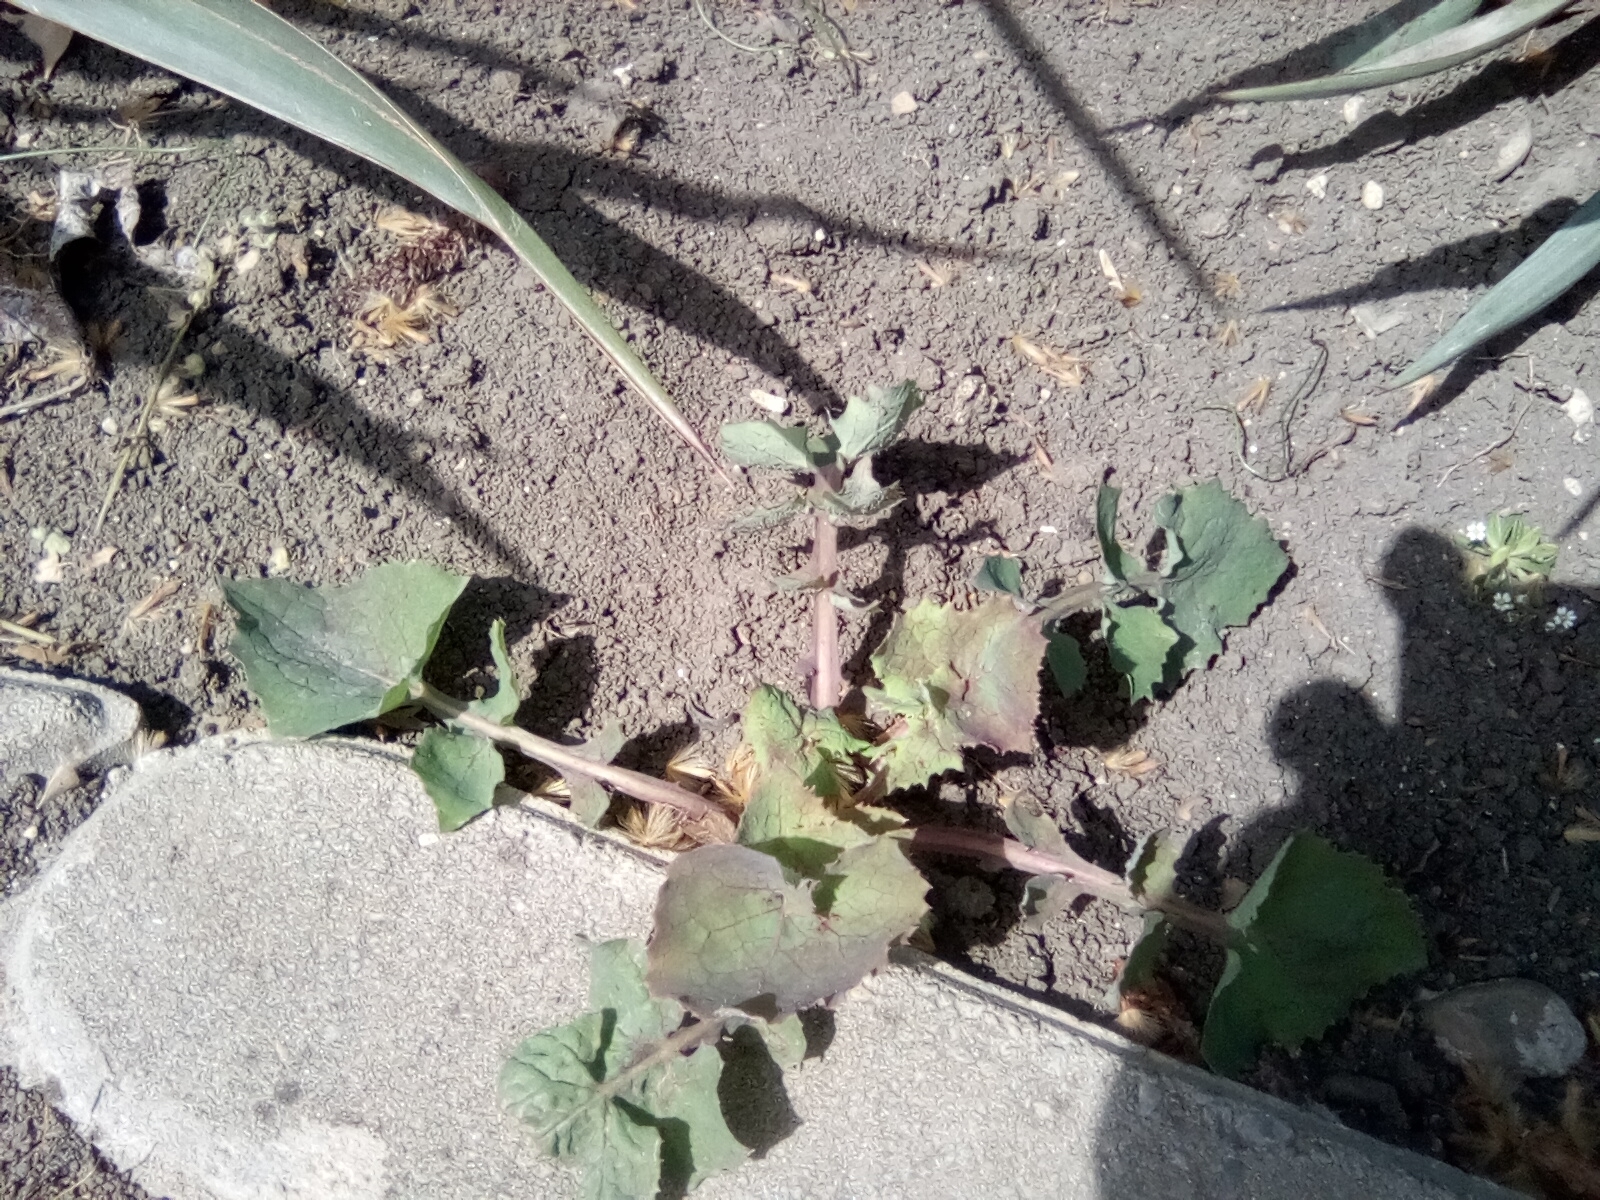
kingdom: Plantae
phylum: Tracheophyta
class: Magnoliopsida
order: Asterales
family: Asteraceae
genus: Sonchus
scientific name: Sonchus oleraceus
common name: Common sowthistle
